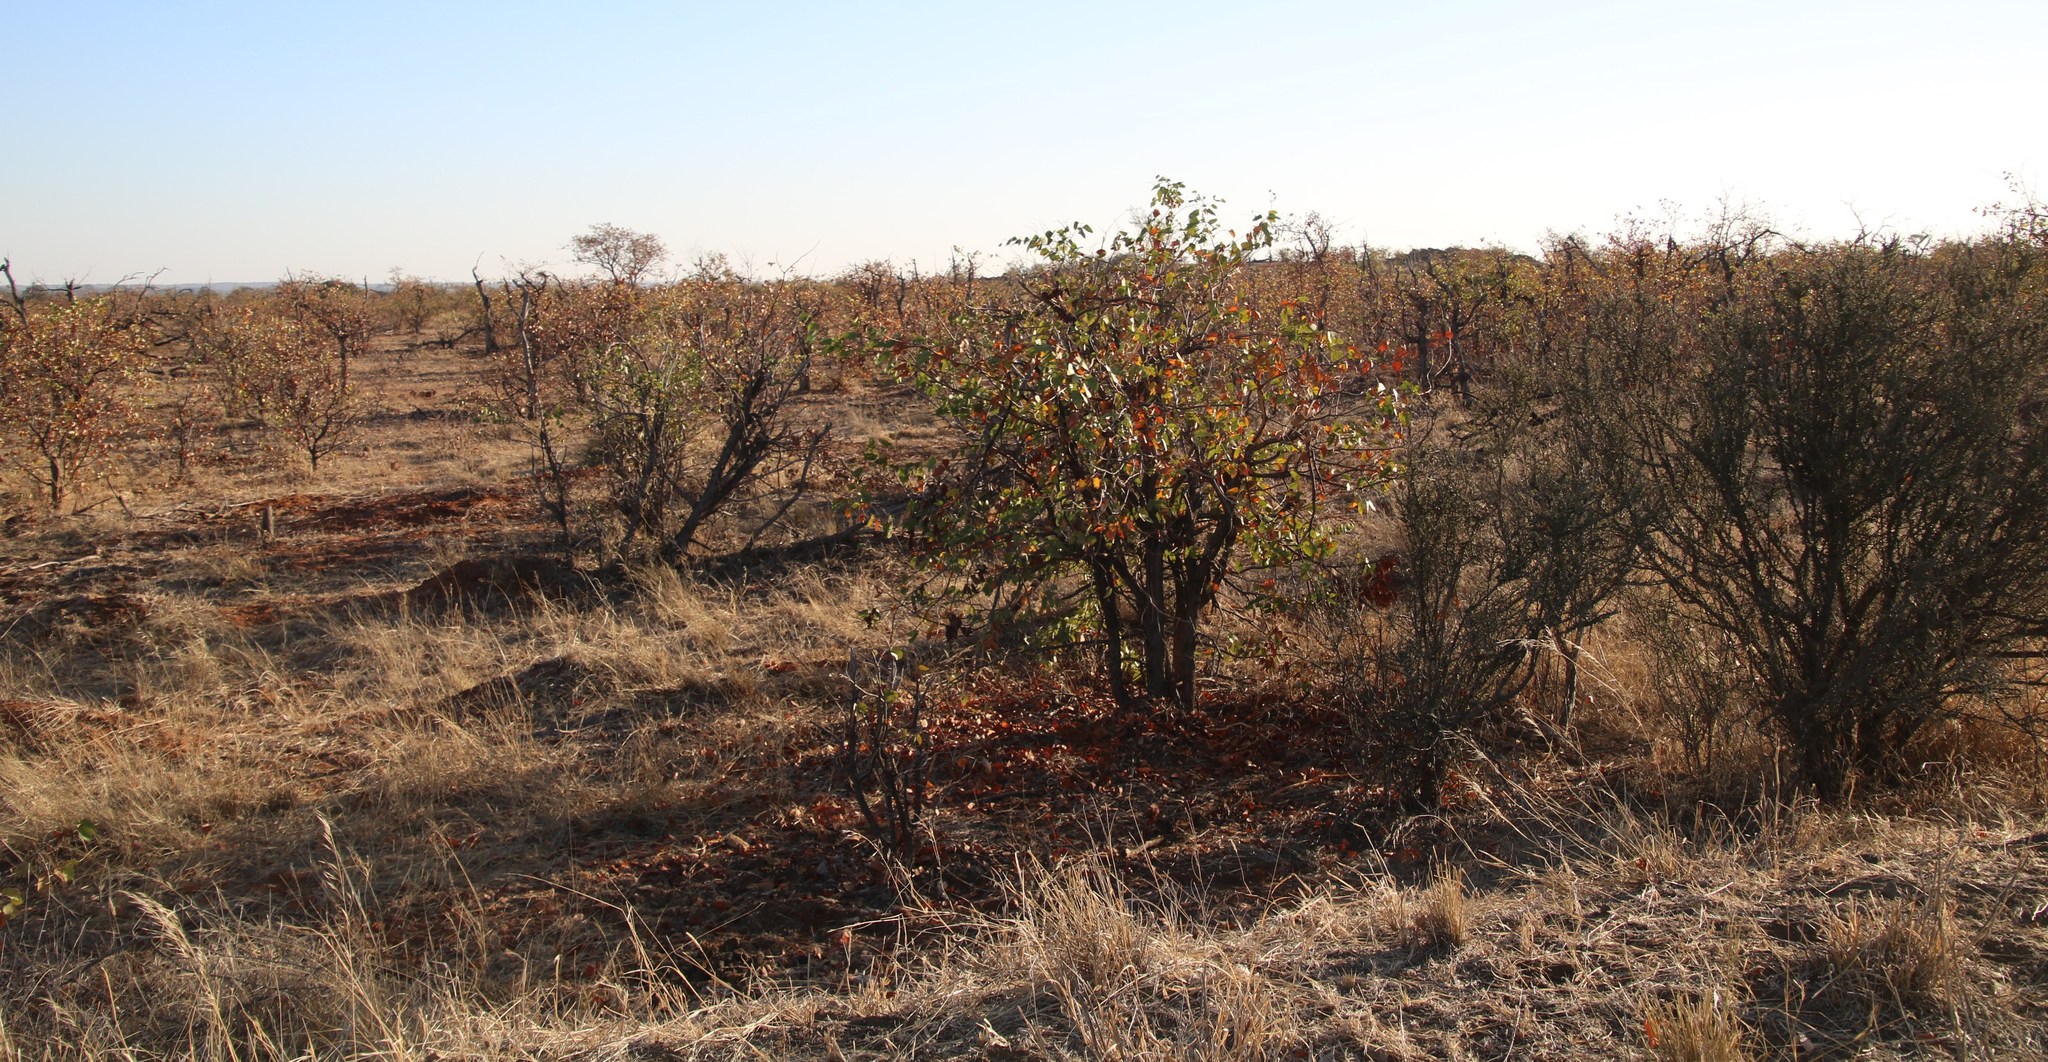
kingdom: Plantae
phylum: Tracheophyta
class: Magnoliopsida
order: Fabales
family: Fabaceae
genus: Colophospermum
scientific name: Colophospermum mopane
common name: Mopane
